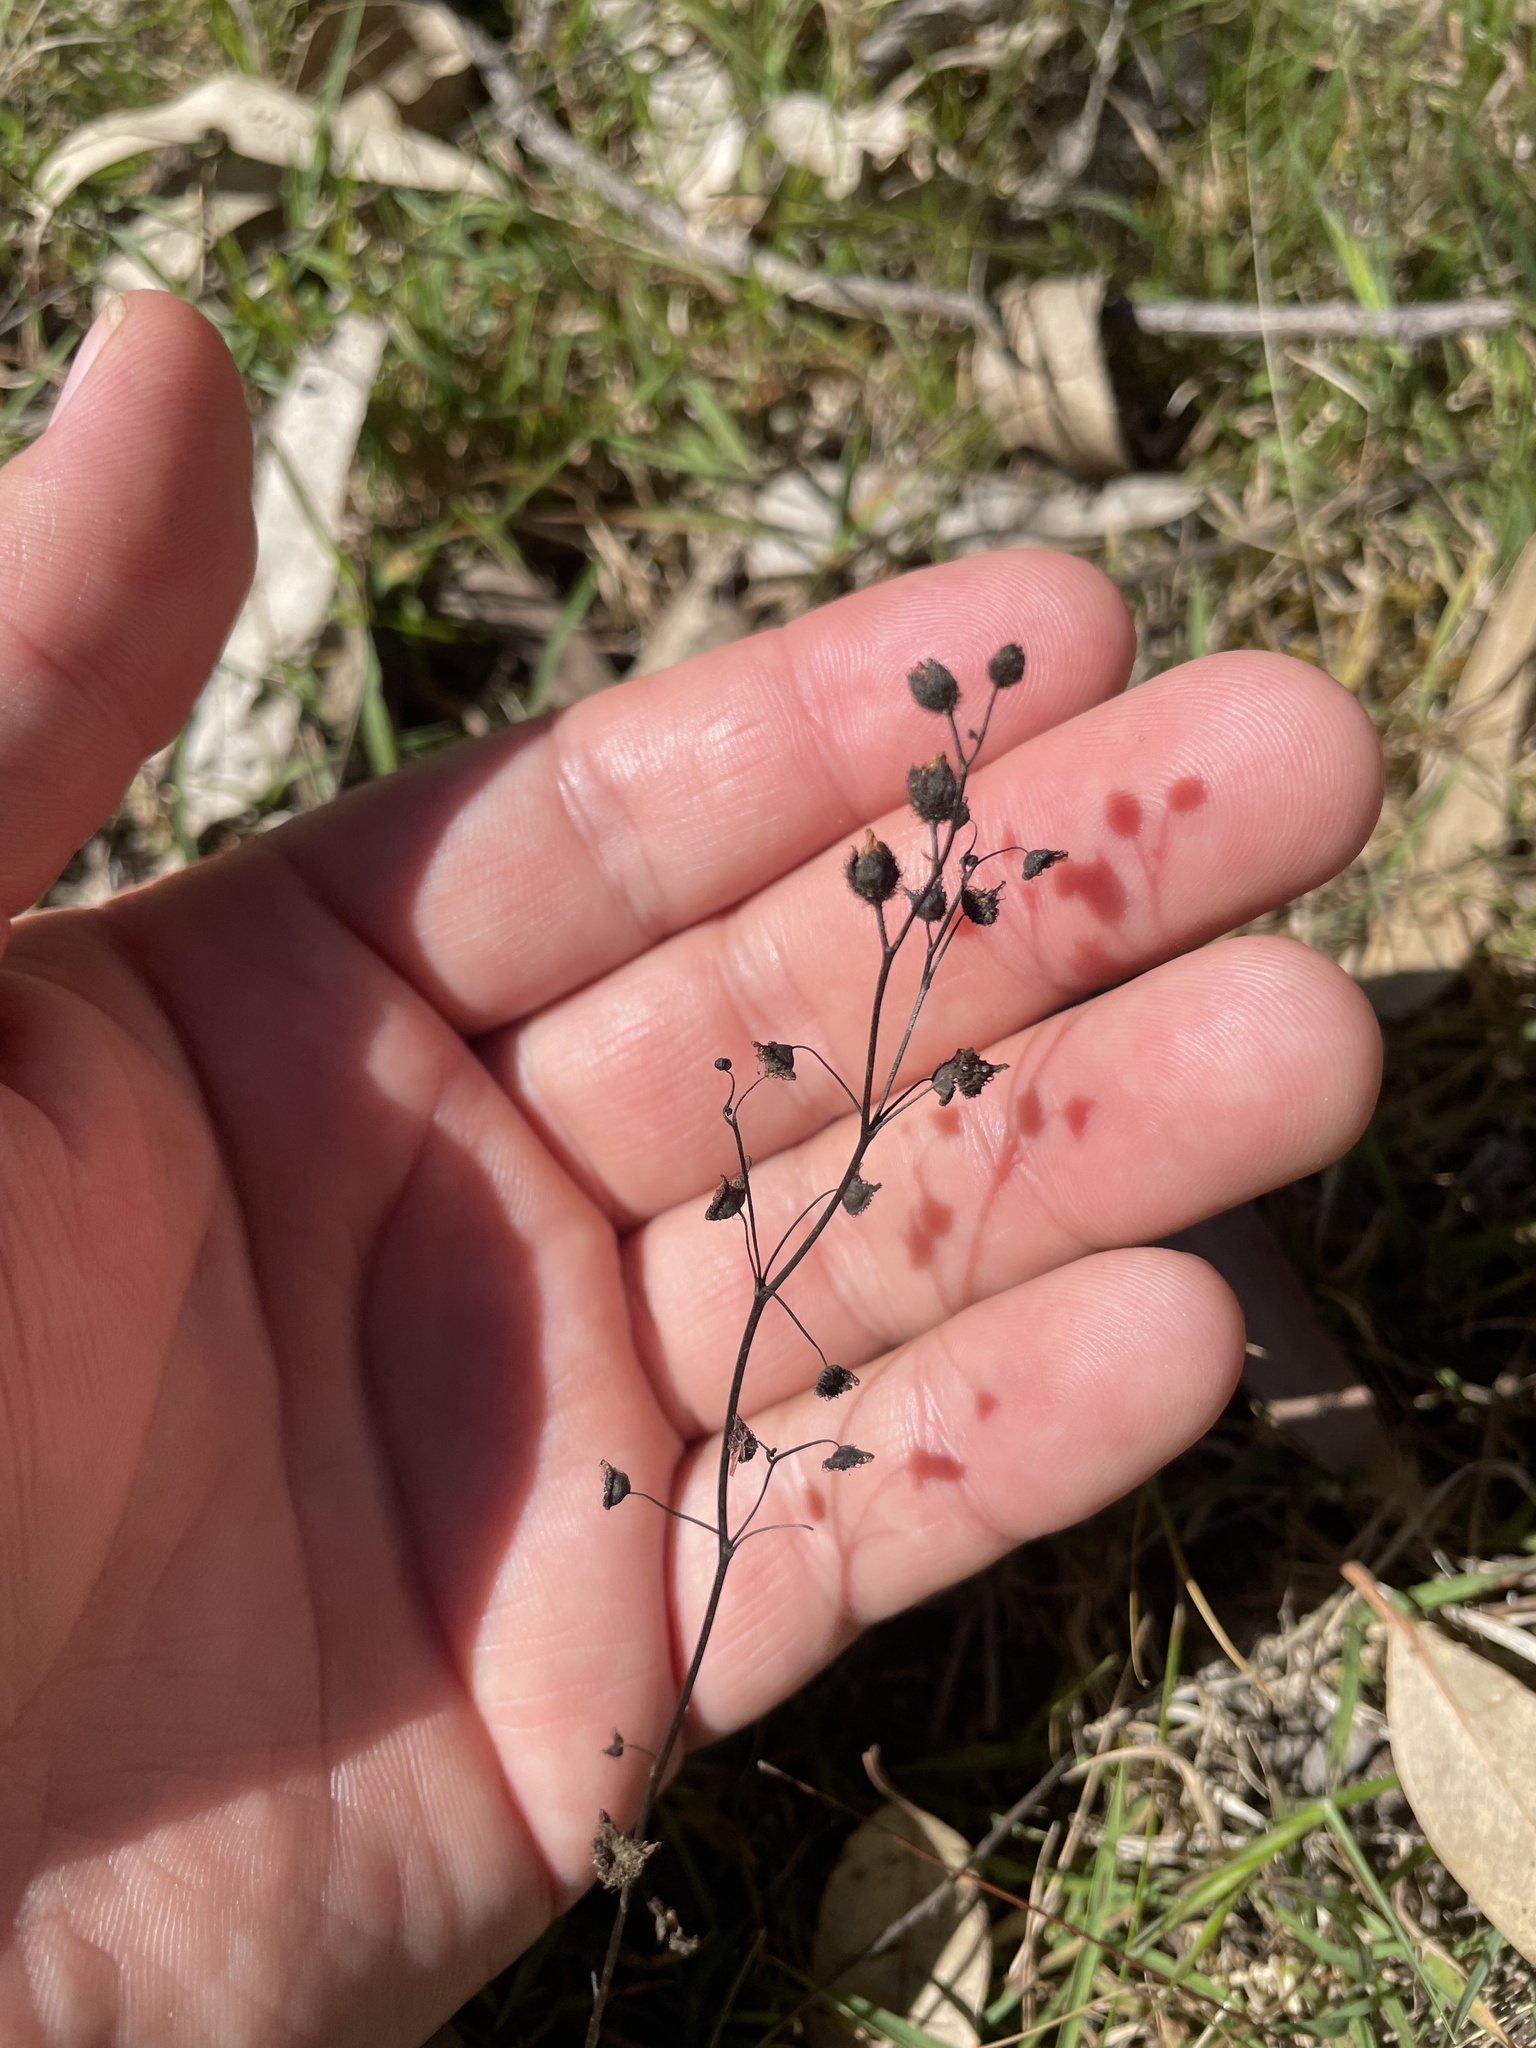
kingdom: Plantae
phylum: Tracheophyta
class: Magnoliopsida
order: Caryophyllales
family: Droseraceae
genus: Drosera
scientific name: Drosera gunniana
